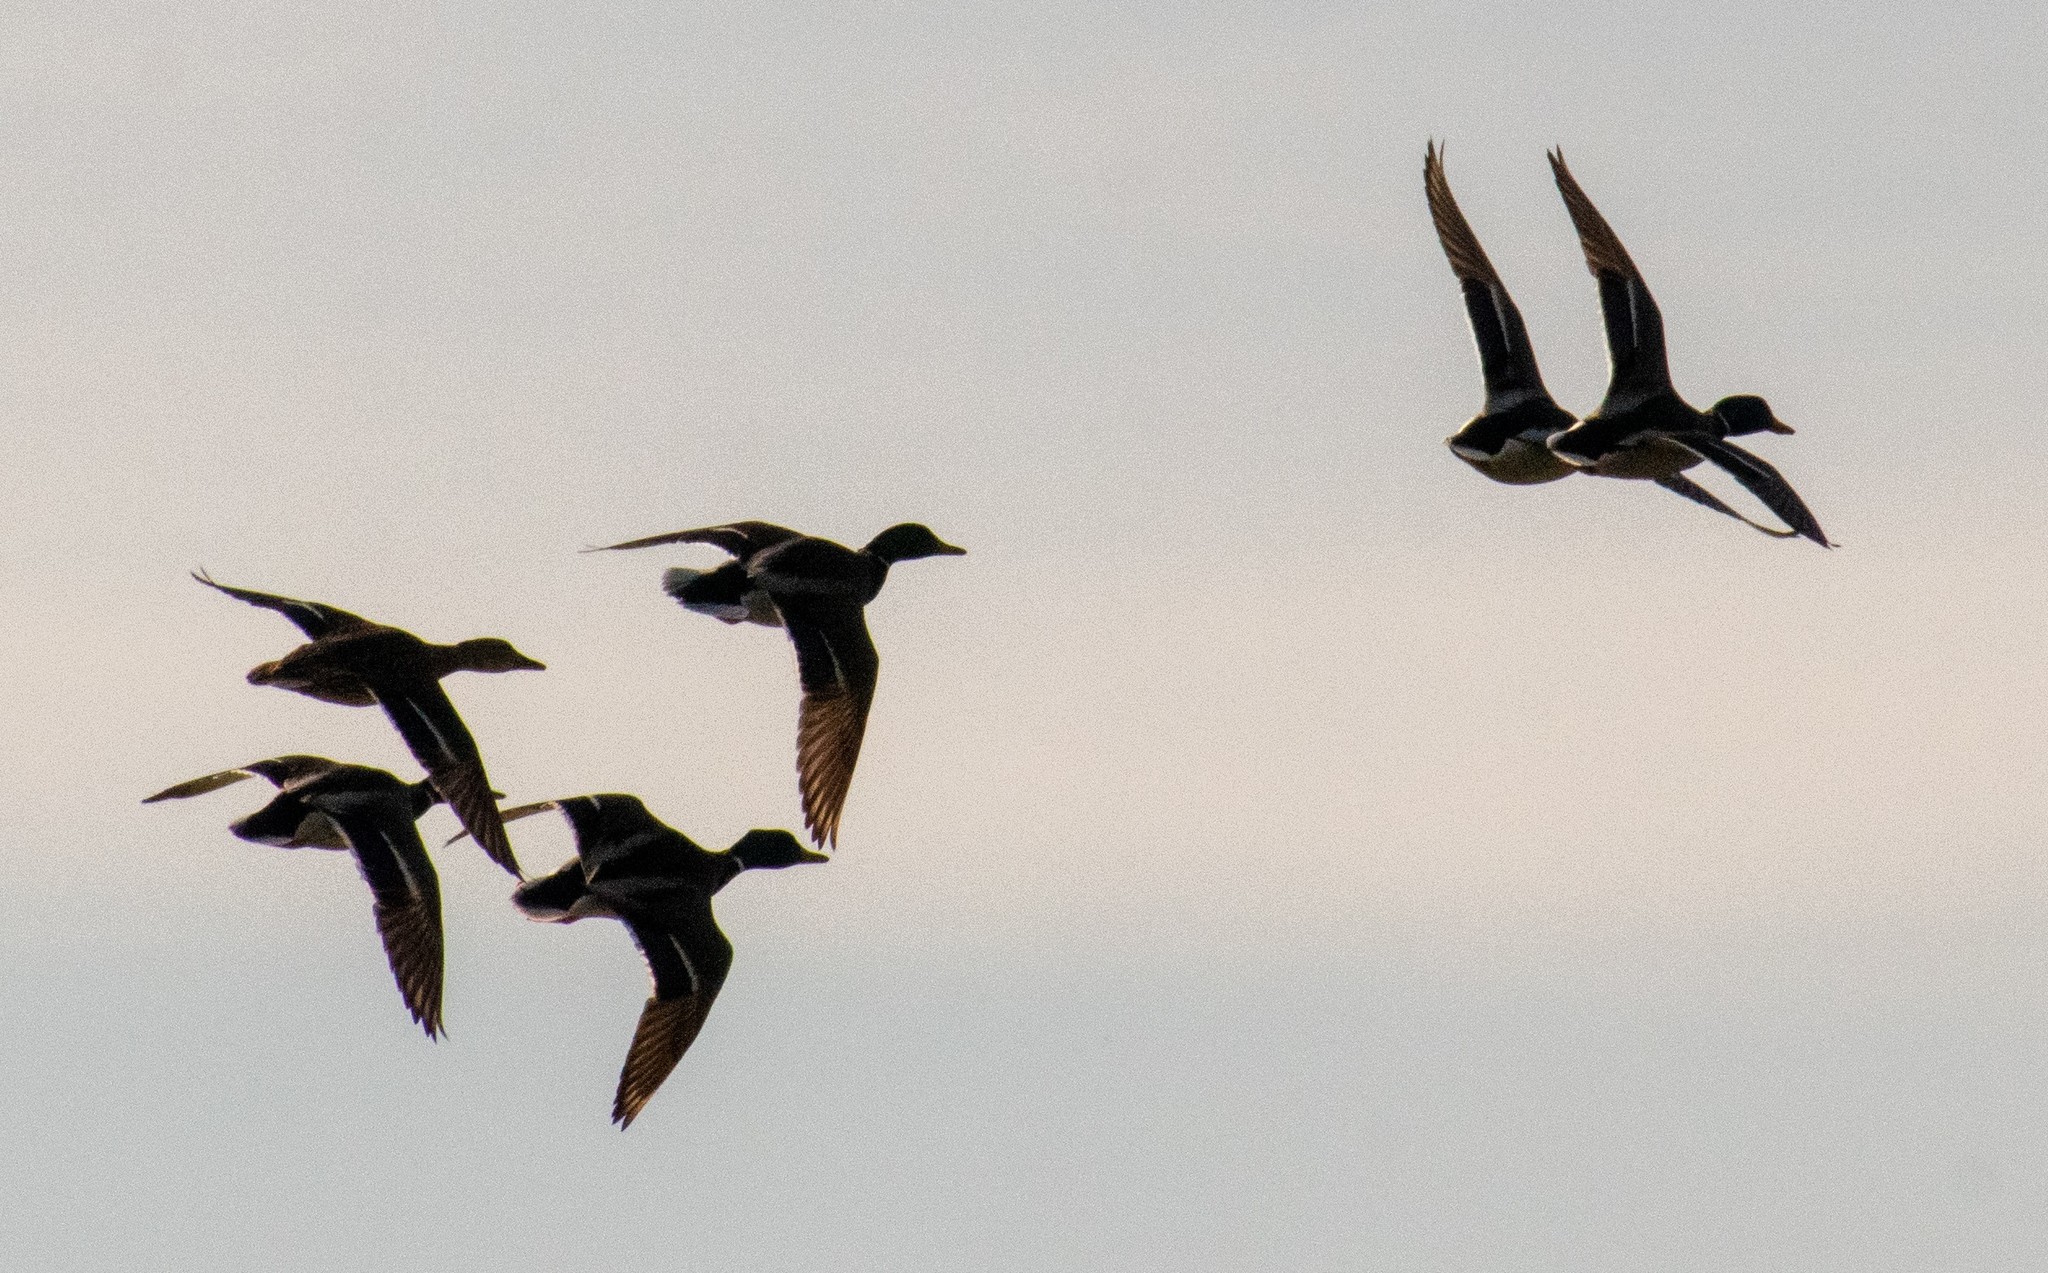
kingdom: Animalia
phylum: Chordata
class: Aves
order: Anseriformes
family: Anatidae
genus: Anas
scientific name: Anas platyrhynchos
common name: Mallard
